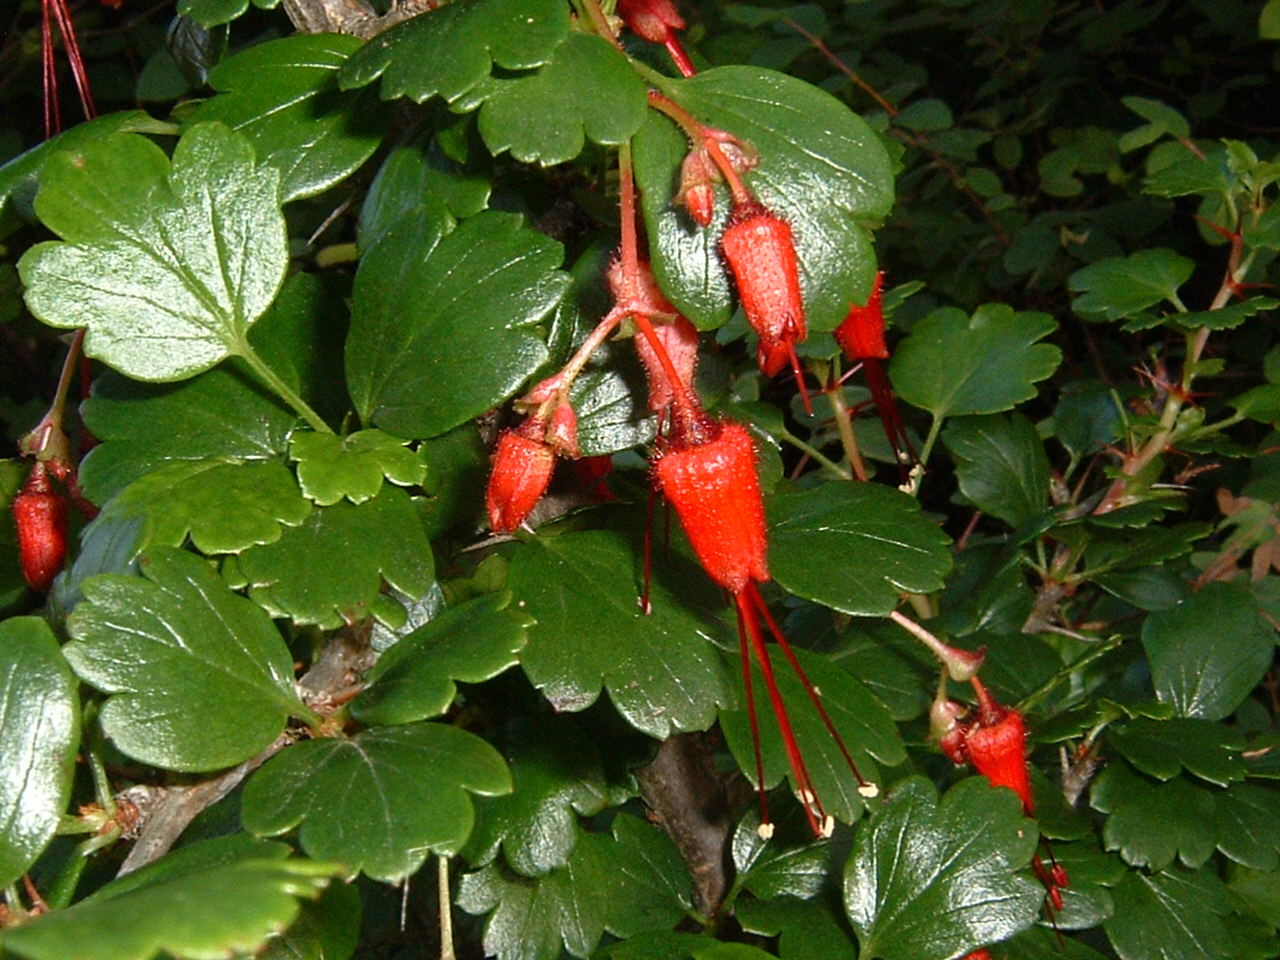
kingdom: Plantae
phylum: Tracheophyta
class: Magnoliopsida
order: Saxifragales
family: Grossulariaceae
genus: Ribes
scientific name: Ribes speciosum
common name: Fuchsia-flower gooseberry
